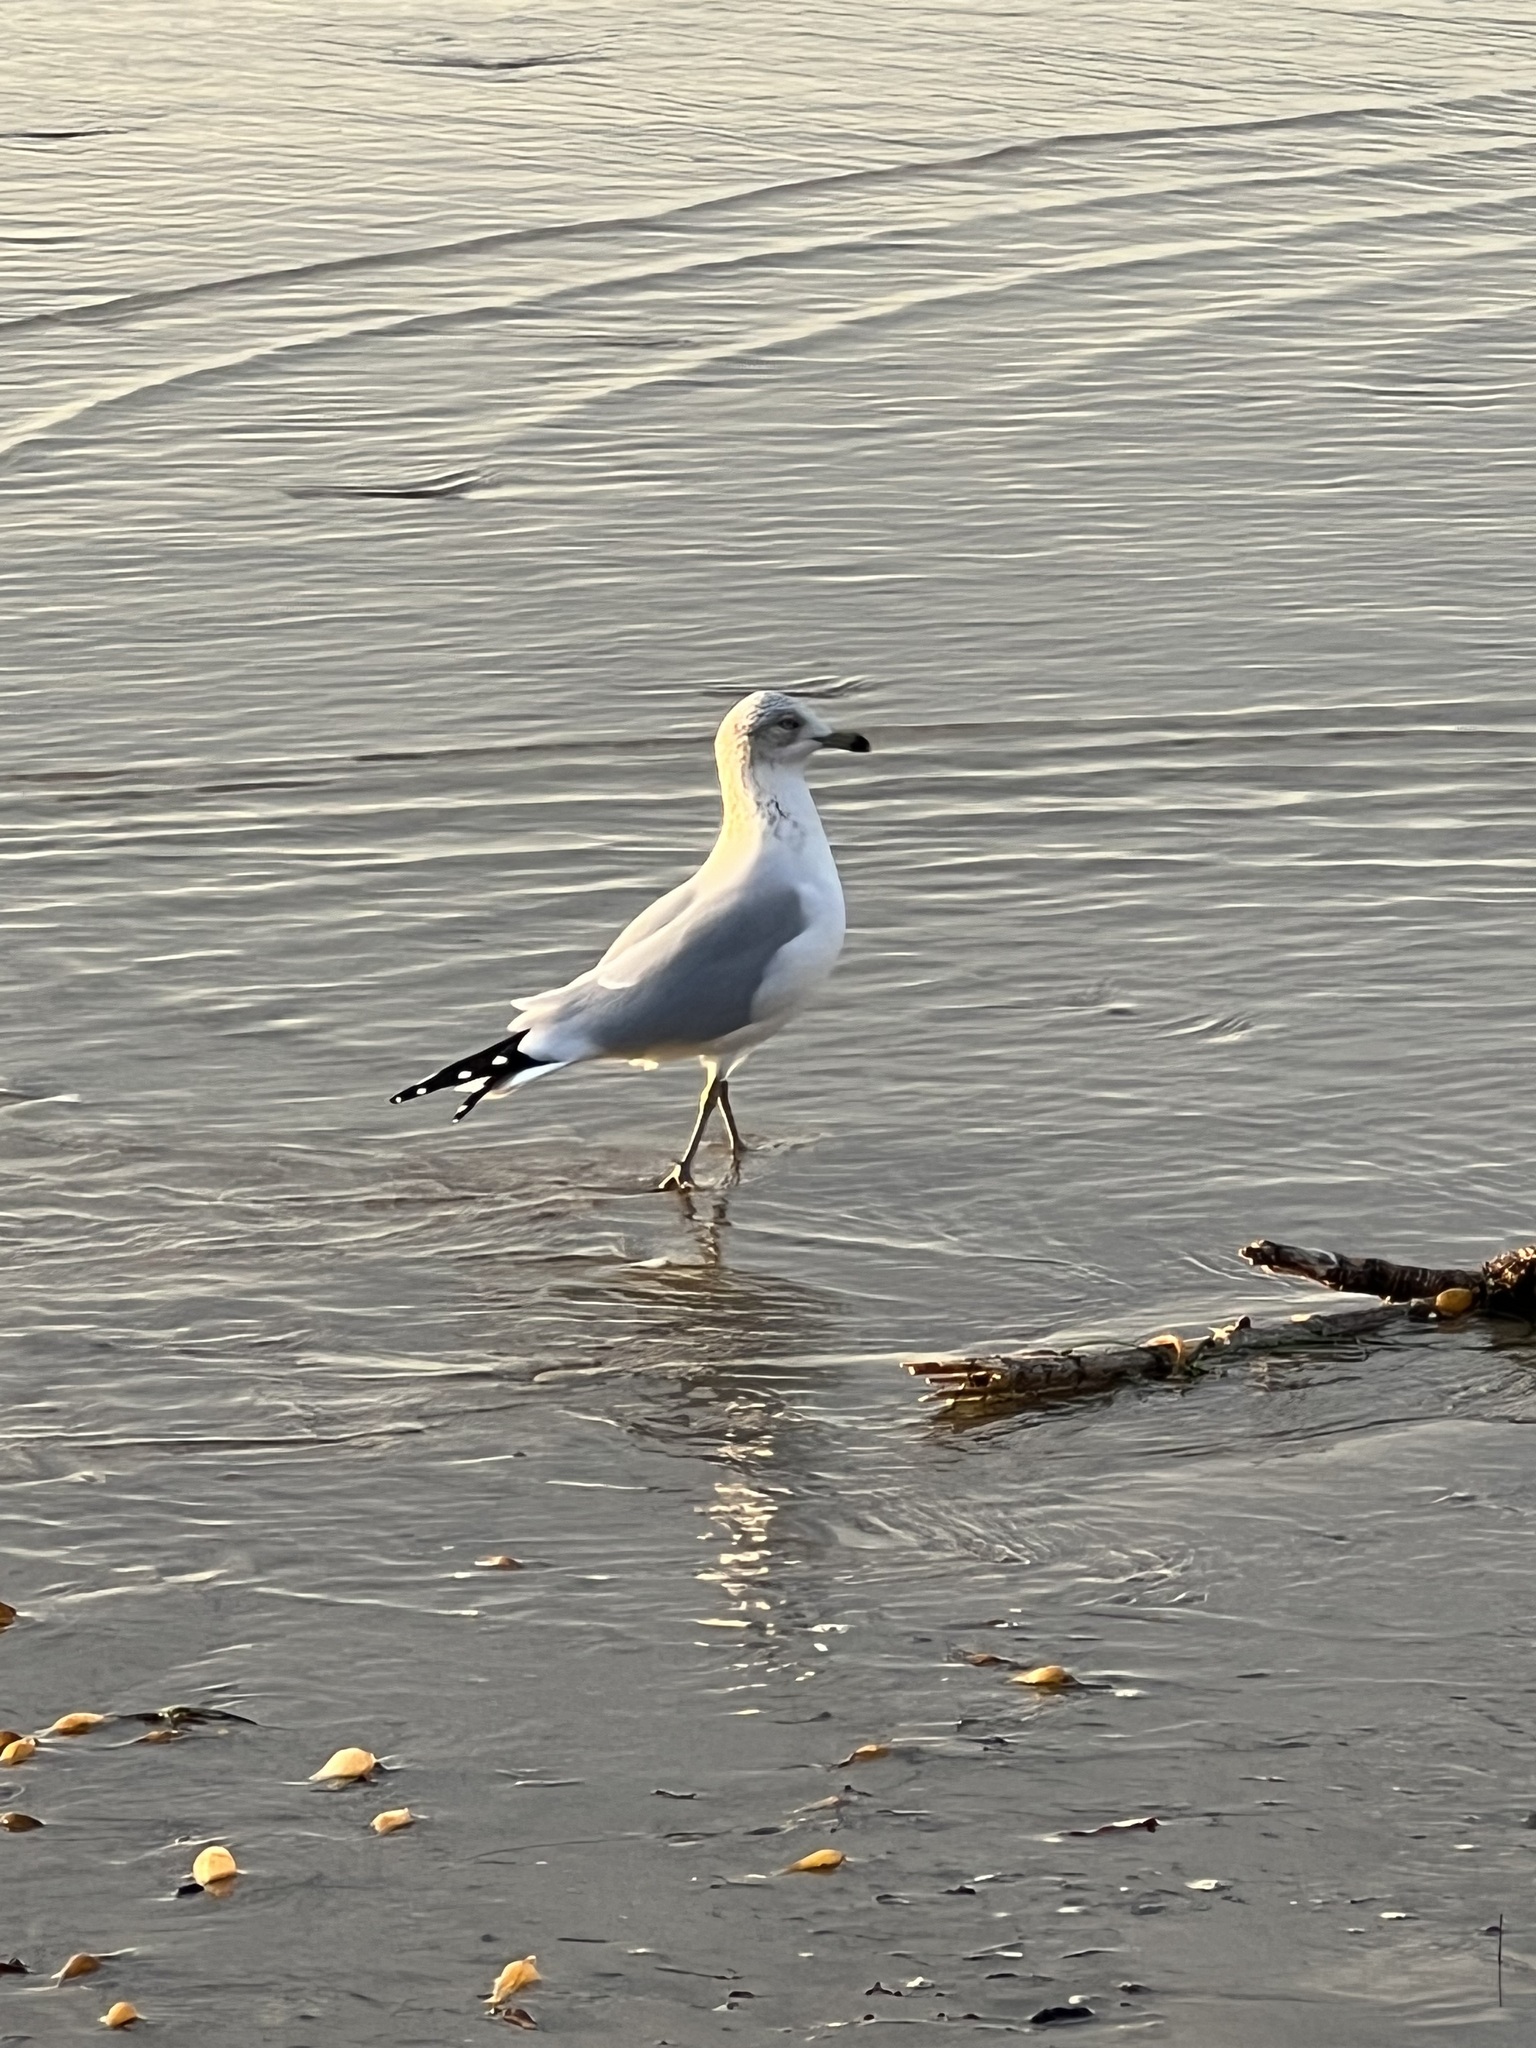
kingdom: Animalia
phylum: Chordata
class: Aves
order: Charadriiformes
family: Laridae
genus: Larus
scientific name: Larus delawarensis
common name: Ring-billed gull
